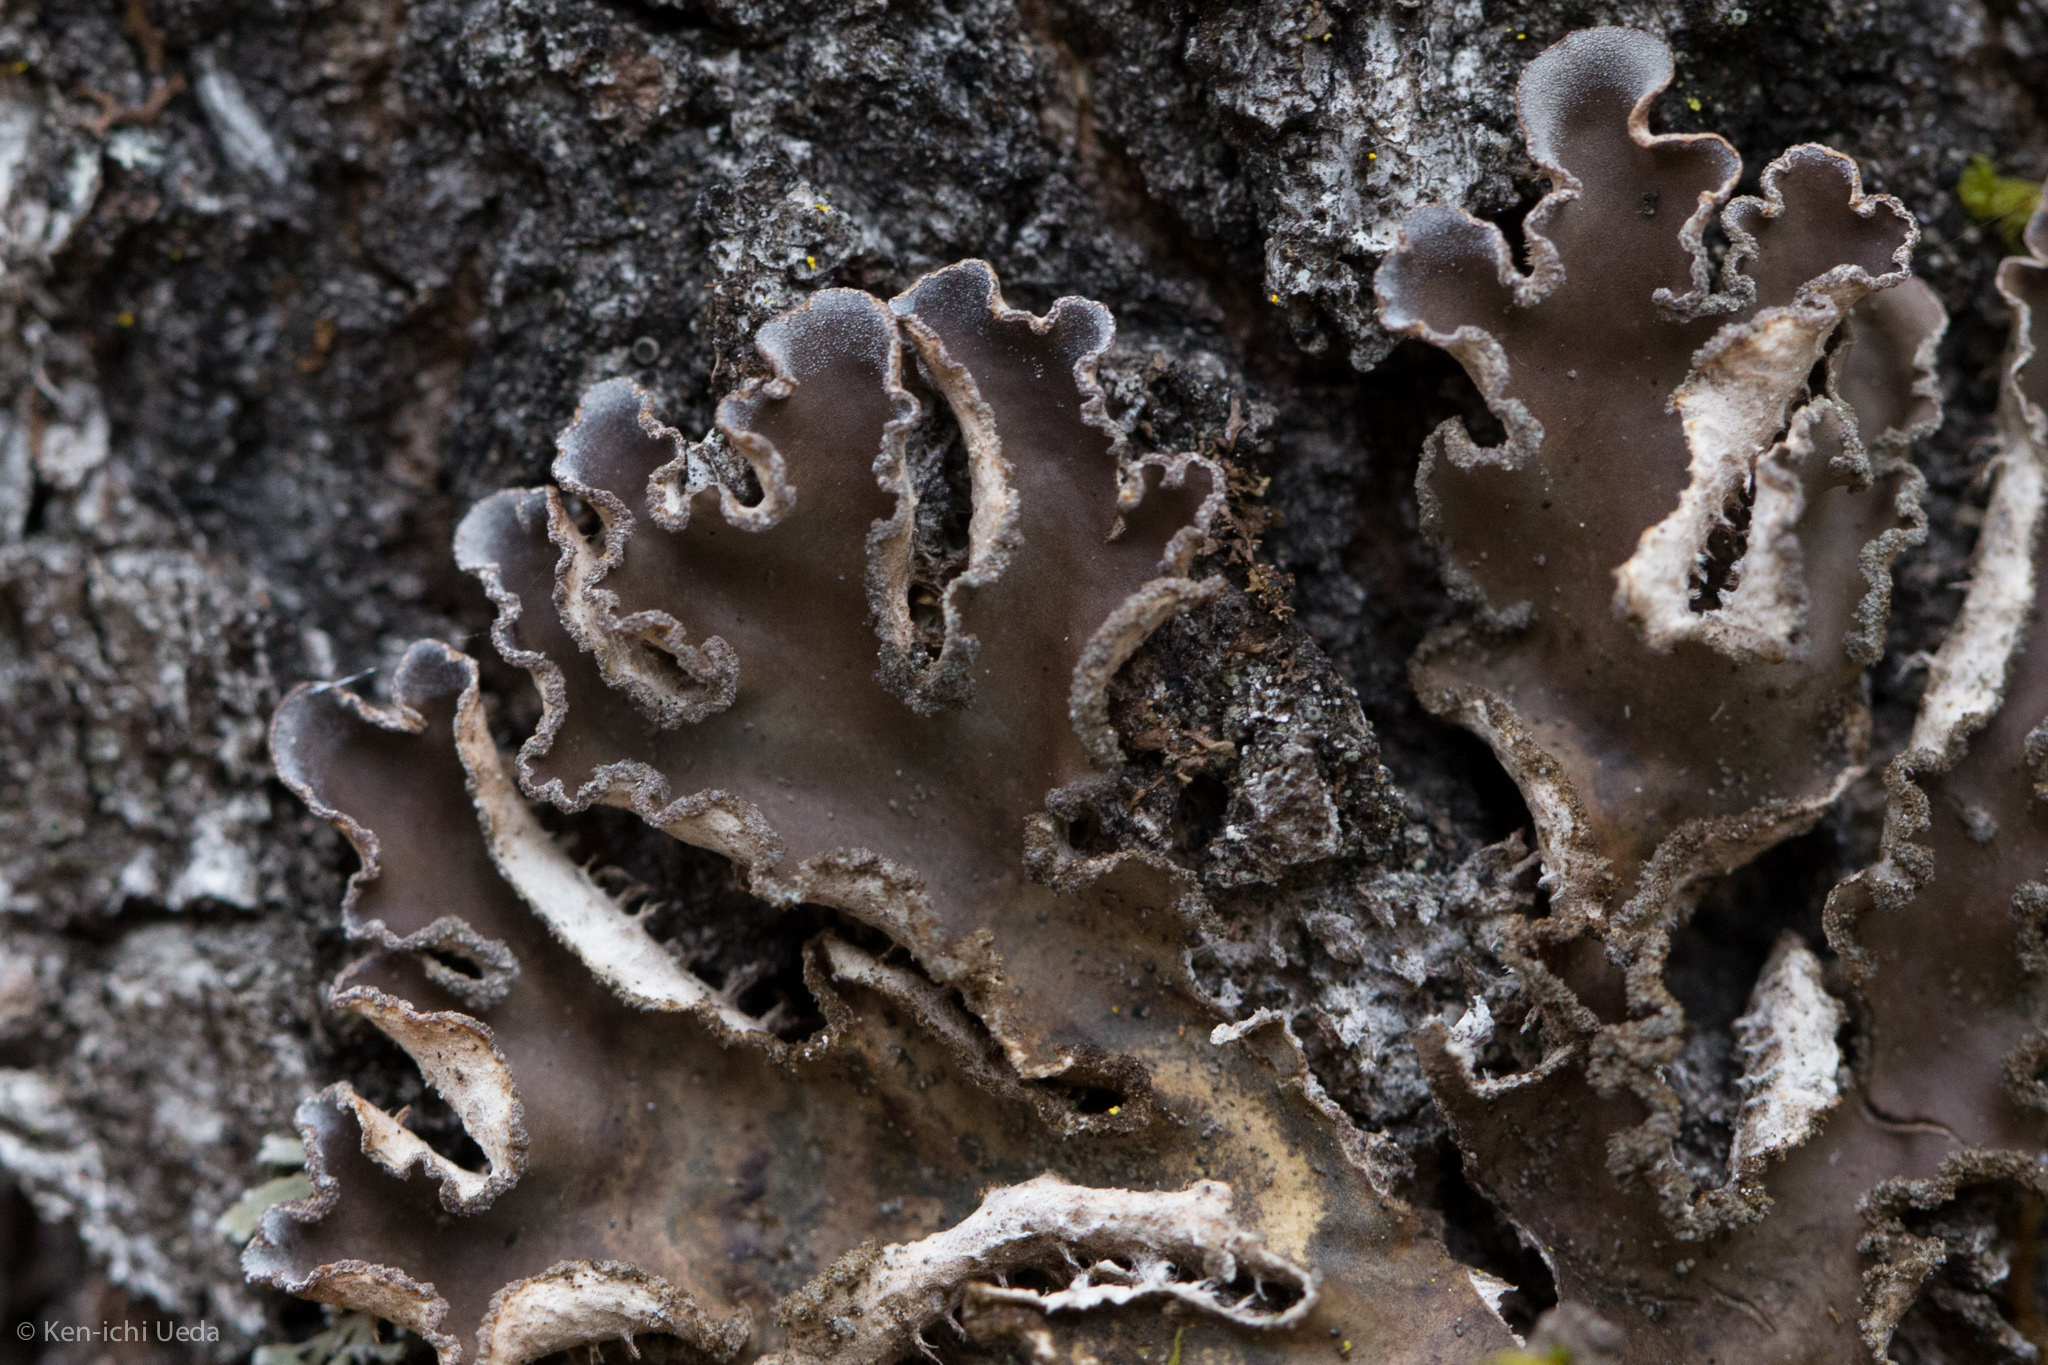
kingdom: Fungi
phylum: Ascomycota
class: Lecanoromycetes
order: Peltigerales
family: Peltigeraceae
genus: Peltigera
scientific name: Peltigera collina
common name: Gritty tree pelt lichen
